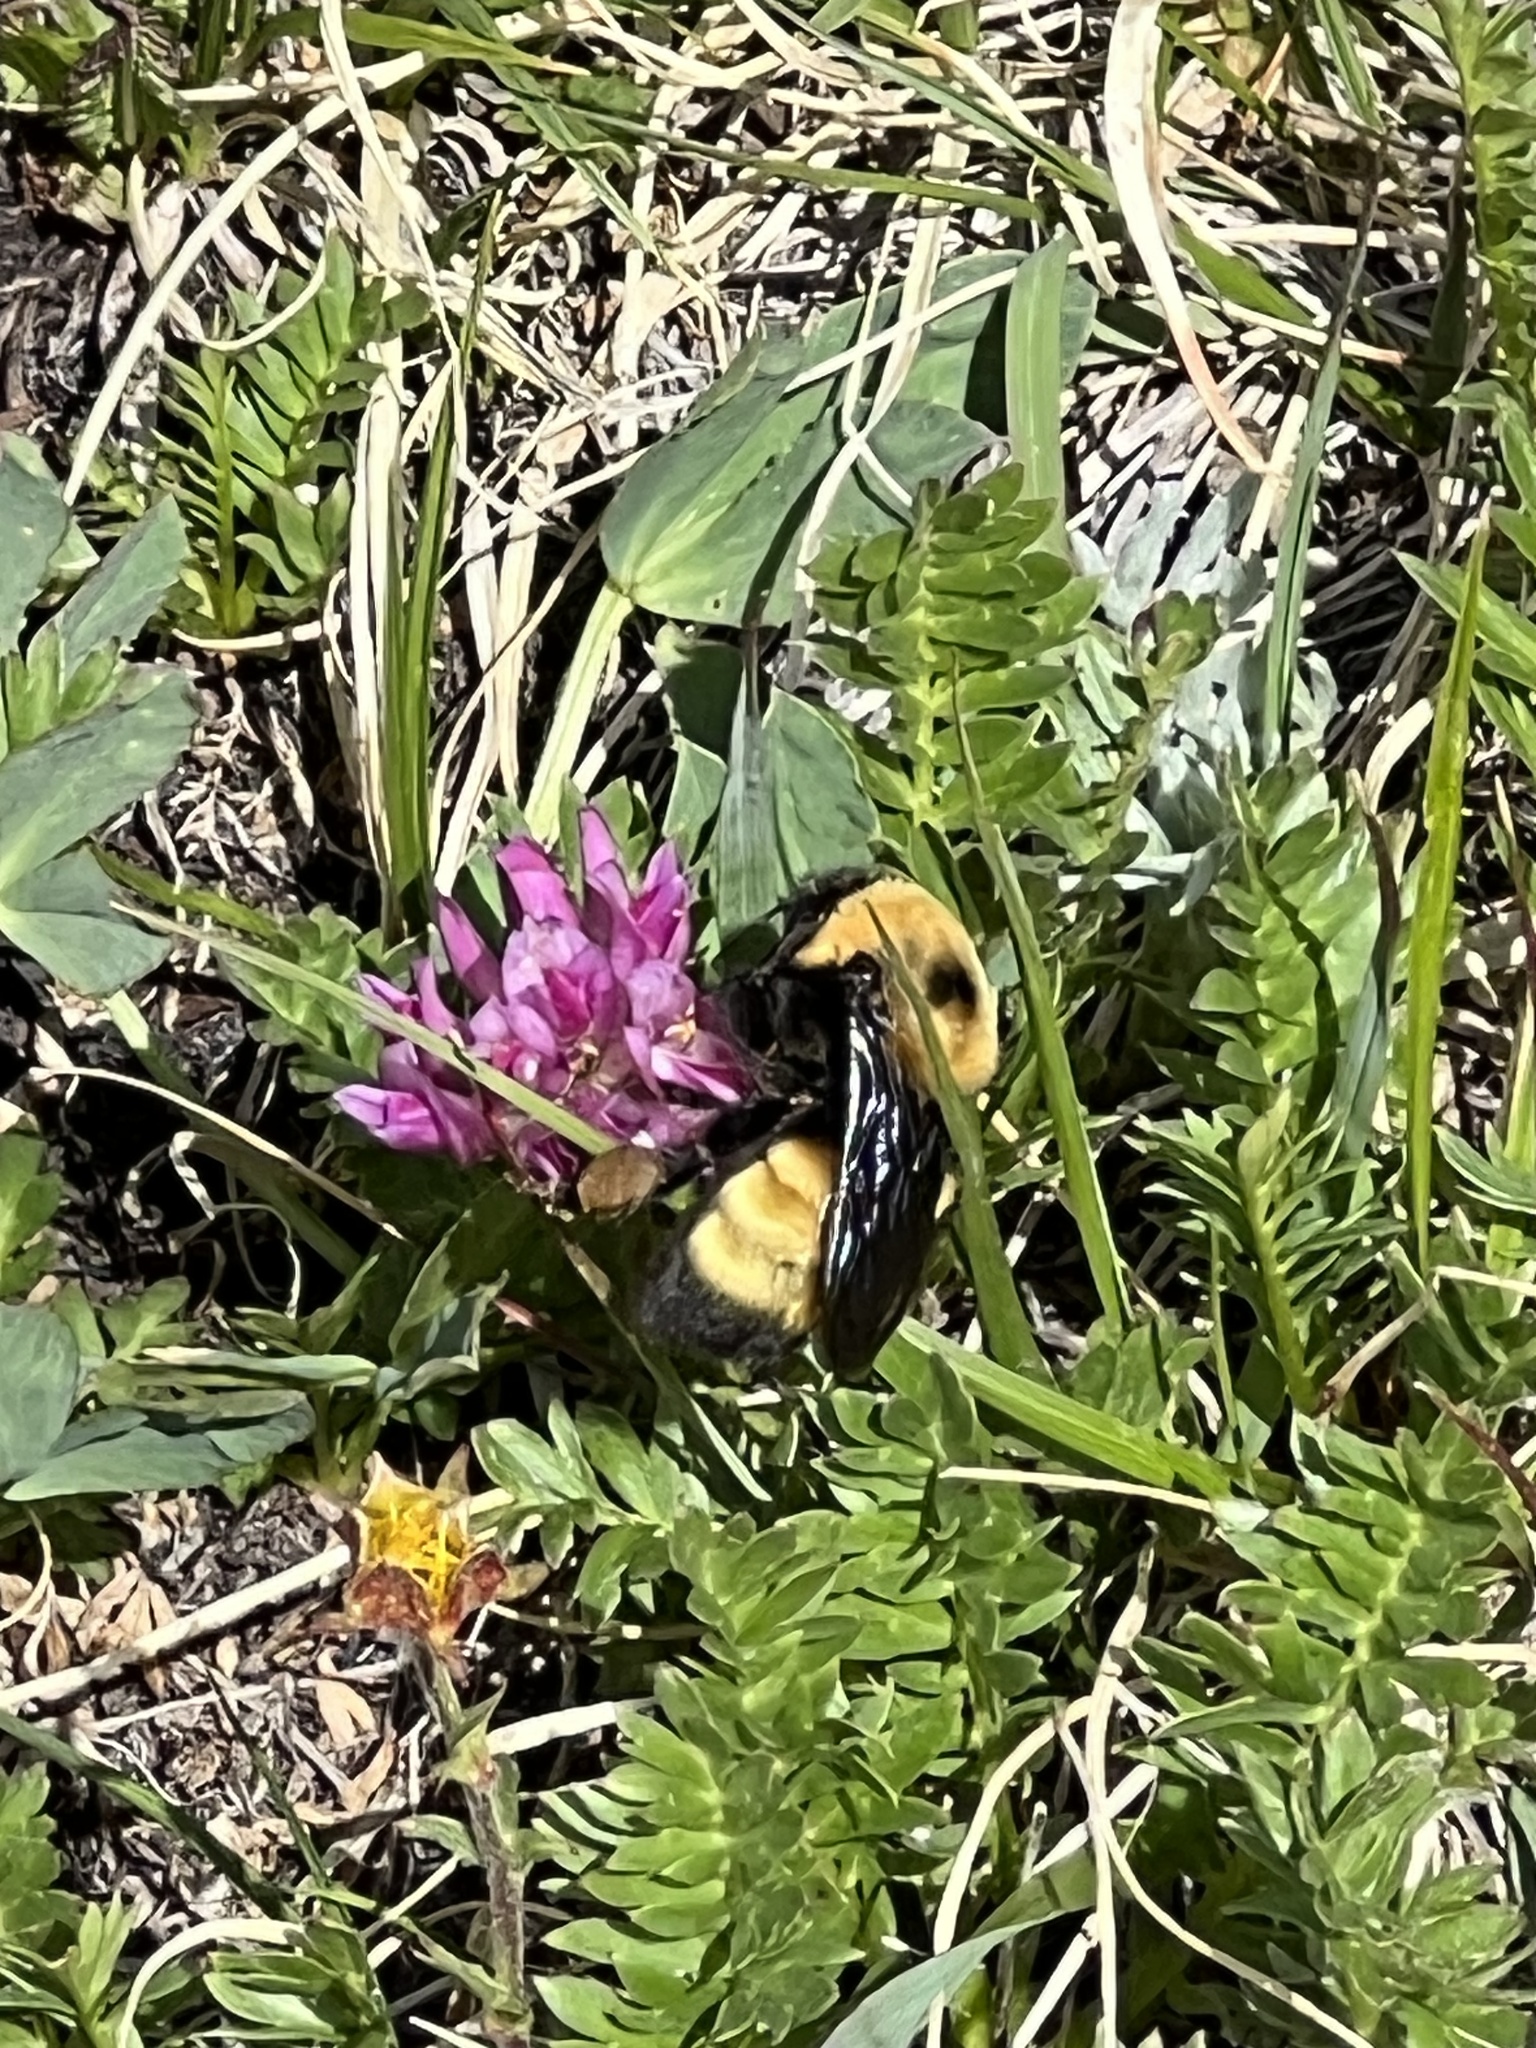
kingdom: Animalia
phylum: Arthropoda
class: Insecta
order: Hymenoptera
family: Apidae
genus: Bombus
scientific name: Bombus nevadensis
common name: Nevada bumble bee
